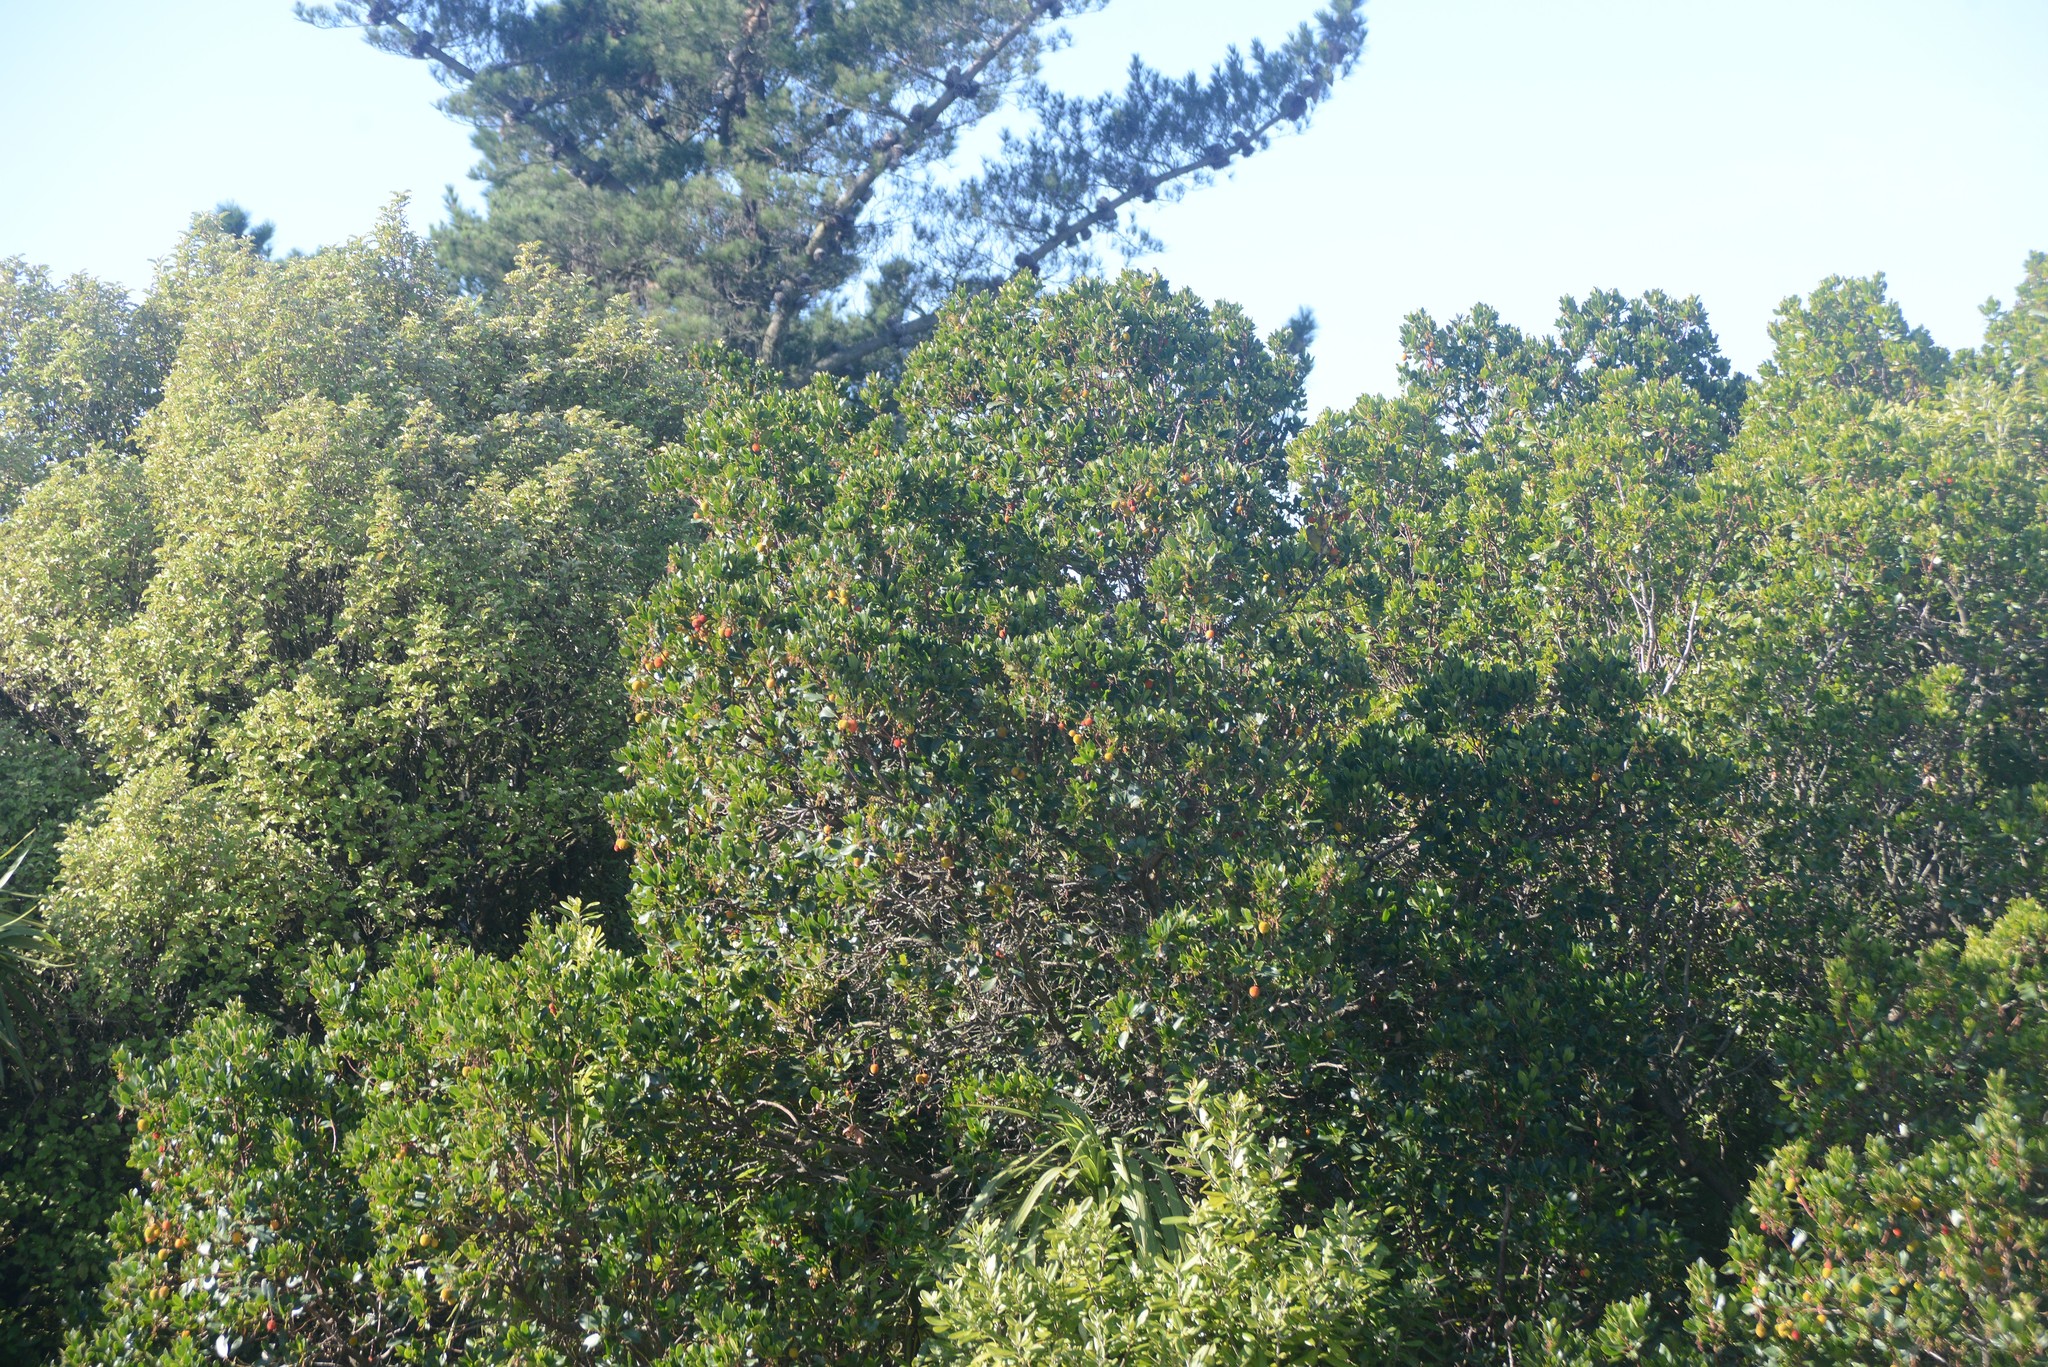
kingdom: Plantae
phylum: Tracheophyta
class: Magnoliopsida
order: Ericales
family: Ericaceae
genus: Arbutus
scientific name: Arbutus unedo
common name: Strawberry-tree
